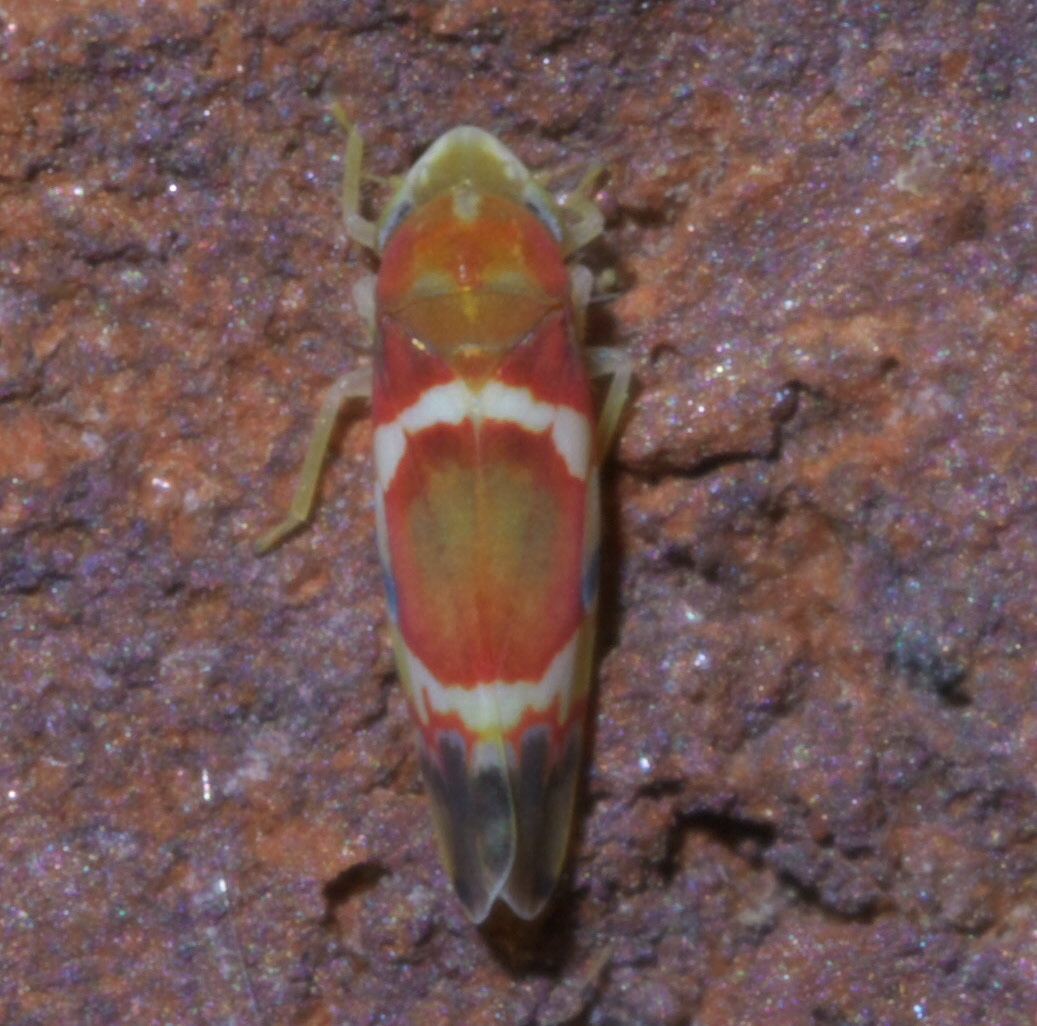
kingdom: Animalia
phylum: Arthropoda
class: Insecta
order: Hemiptera
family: Cicadellidae
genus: Erythroneura
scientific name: Erythroneura vitis
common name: Grapevine leafhopper
